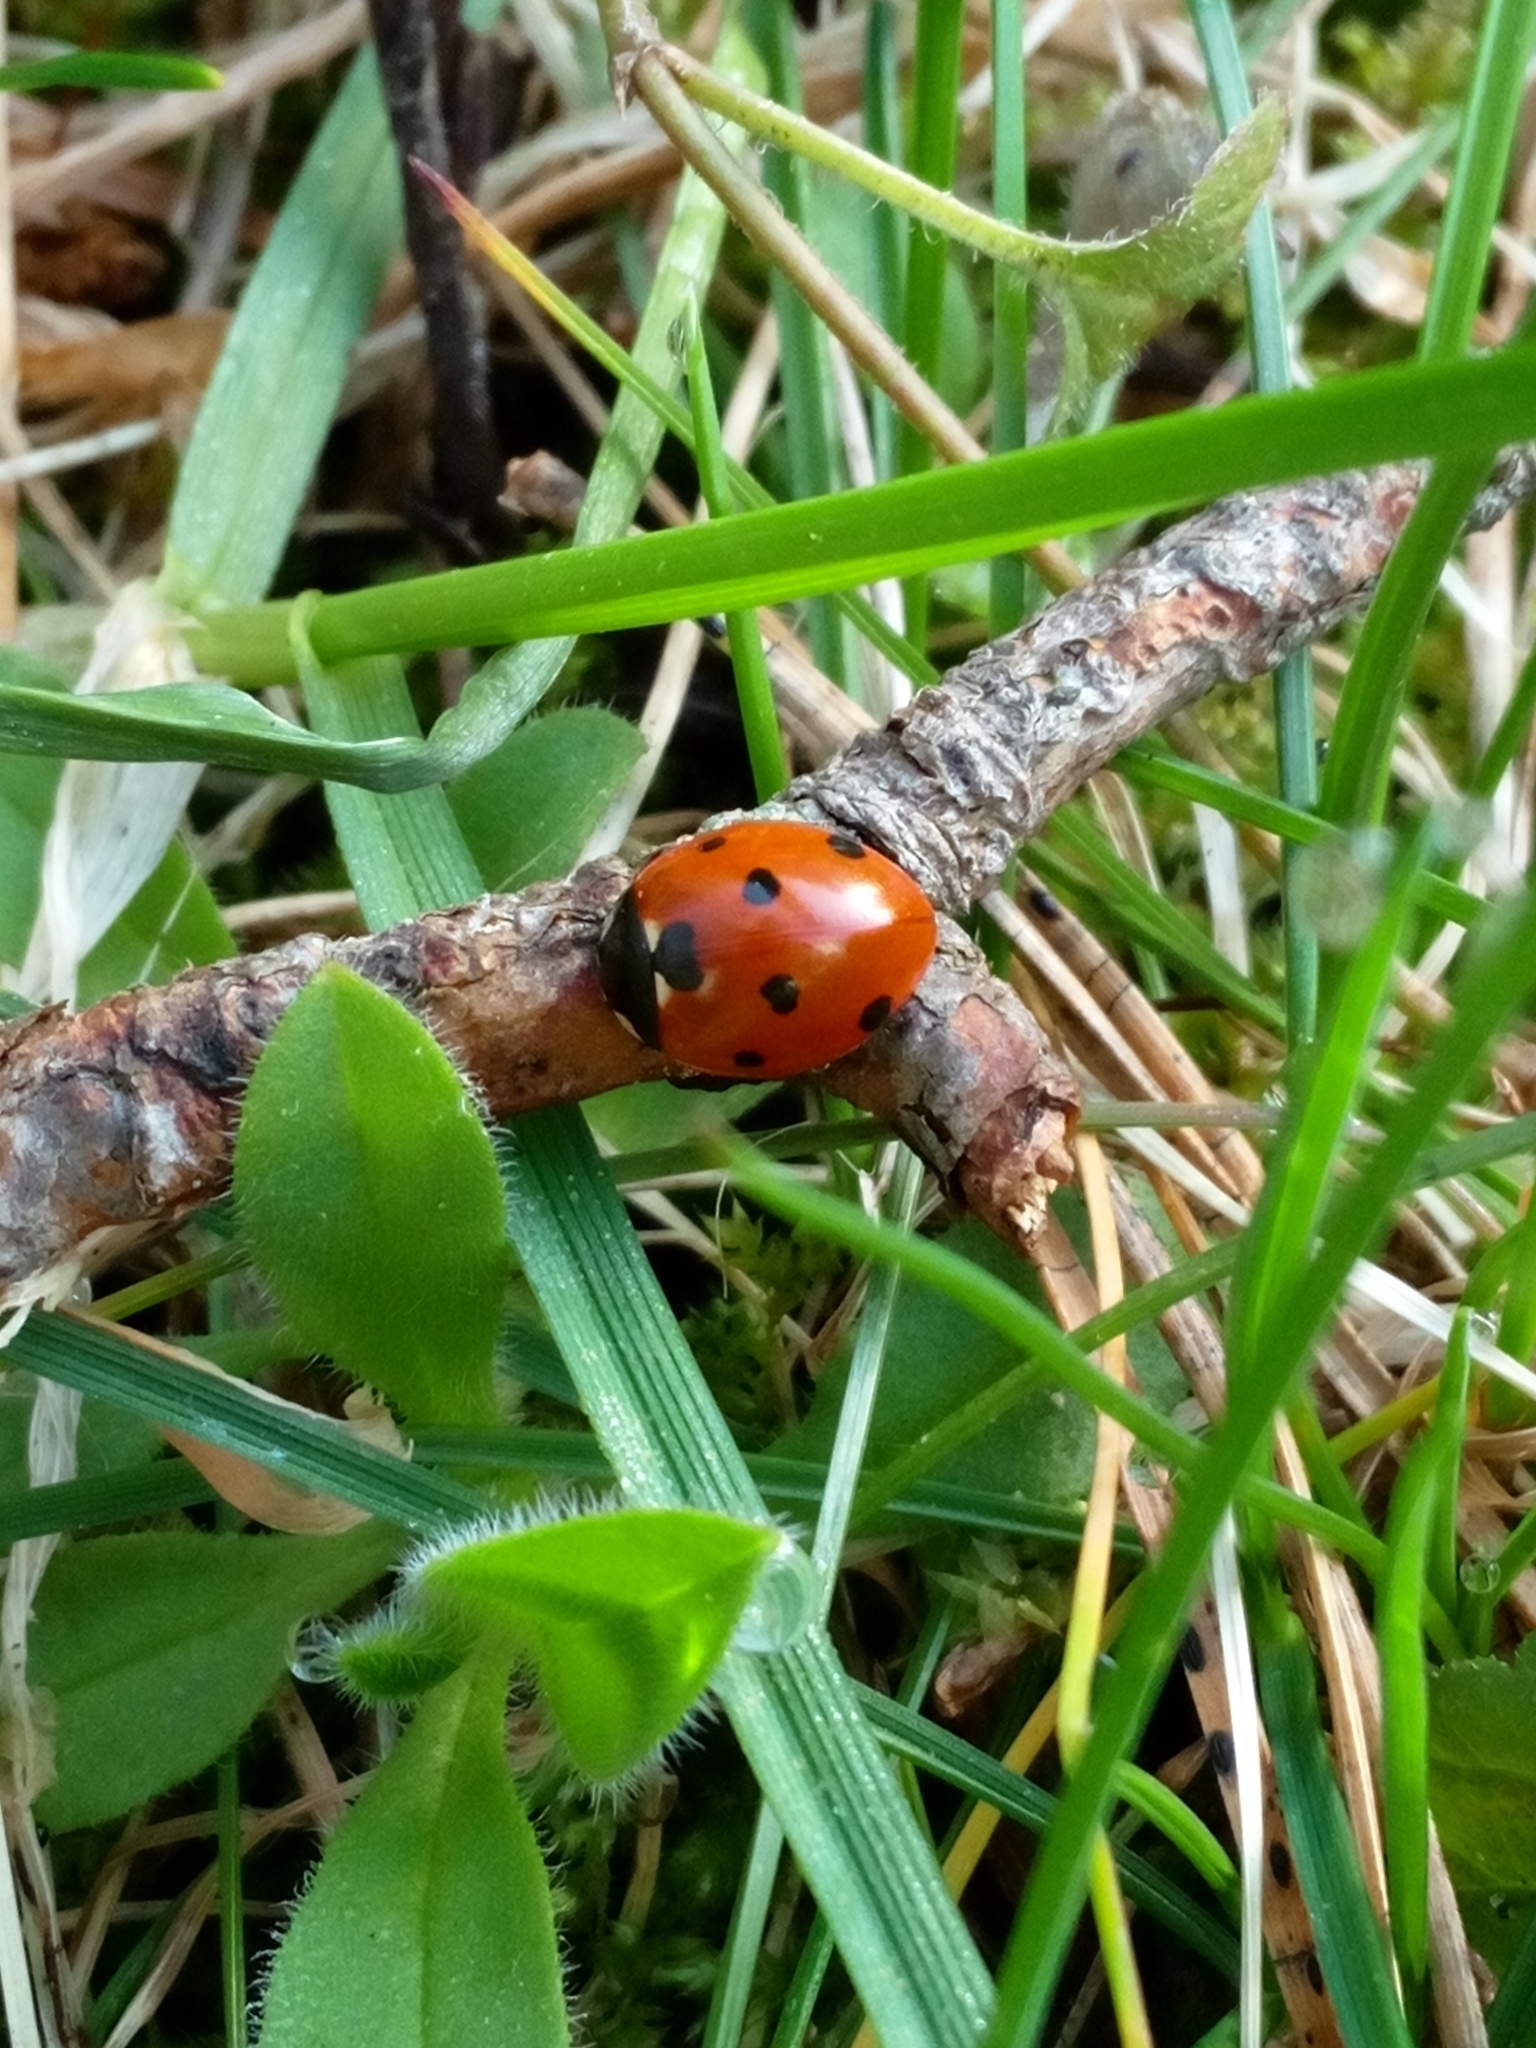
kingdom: Animalia
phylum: Arthropoda
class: Insecta
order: Coleoptera
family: Coccinellidae
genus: Coccinella
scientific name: Coccinella septempunctata
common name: Sevenspotted lady beetle
